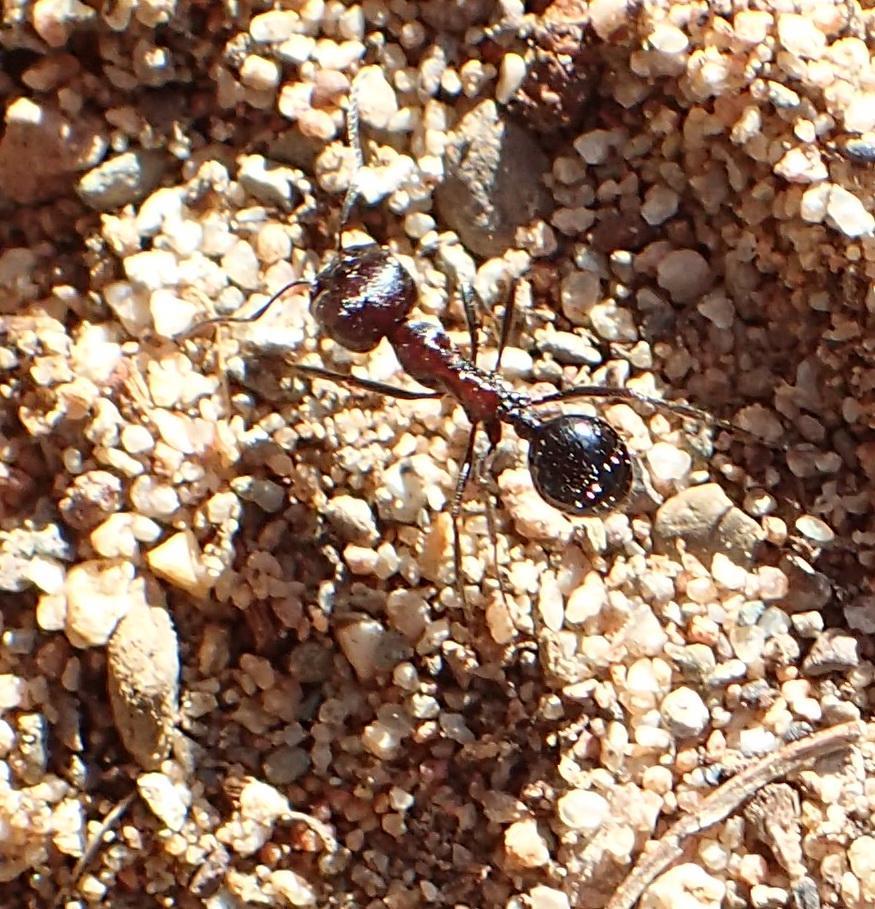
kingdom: Animalia
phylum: Arthropoda
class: Insecta
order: Hymenoptera
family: Formicidae
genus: Messor
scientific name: Messor striatifrons
